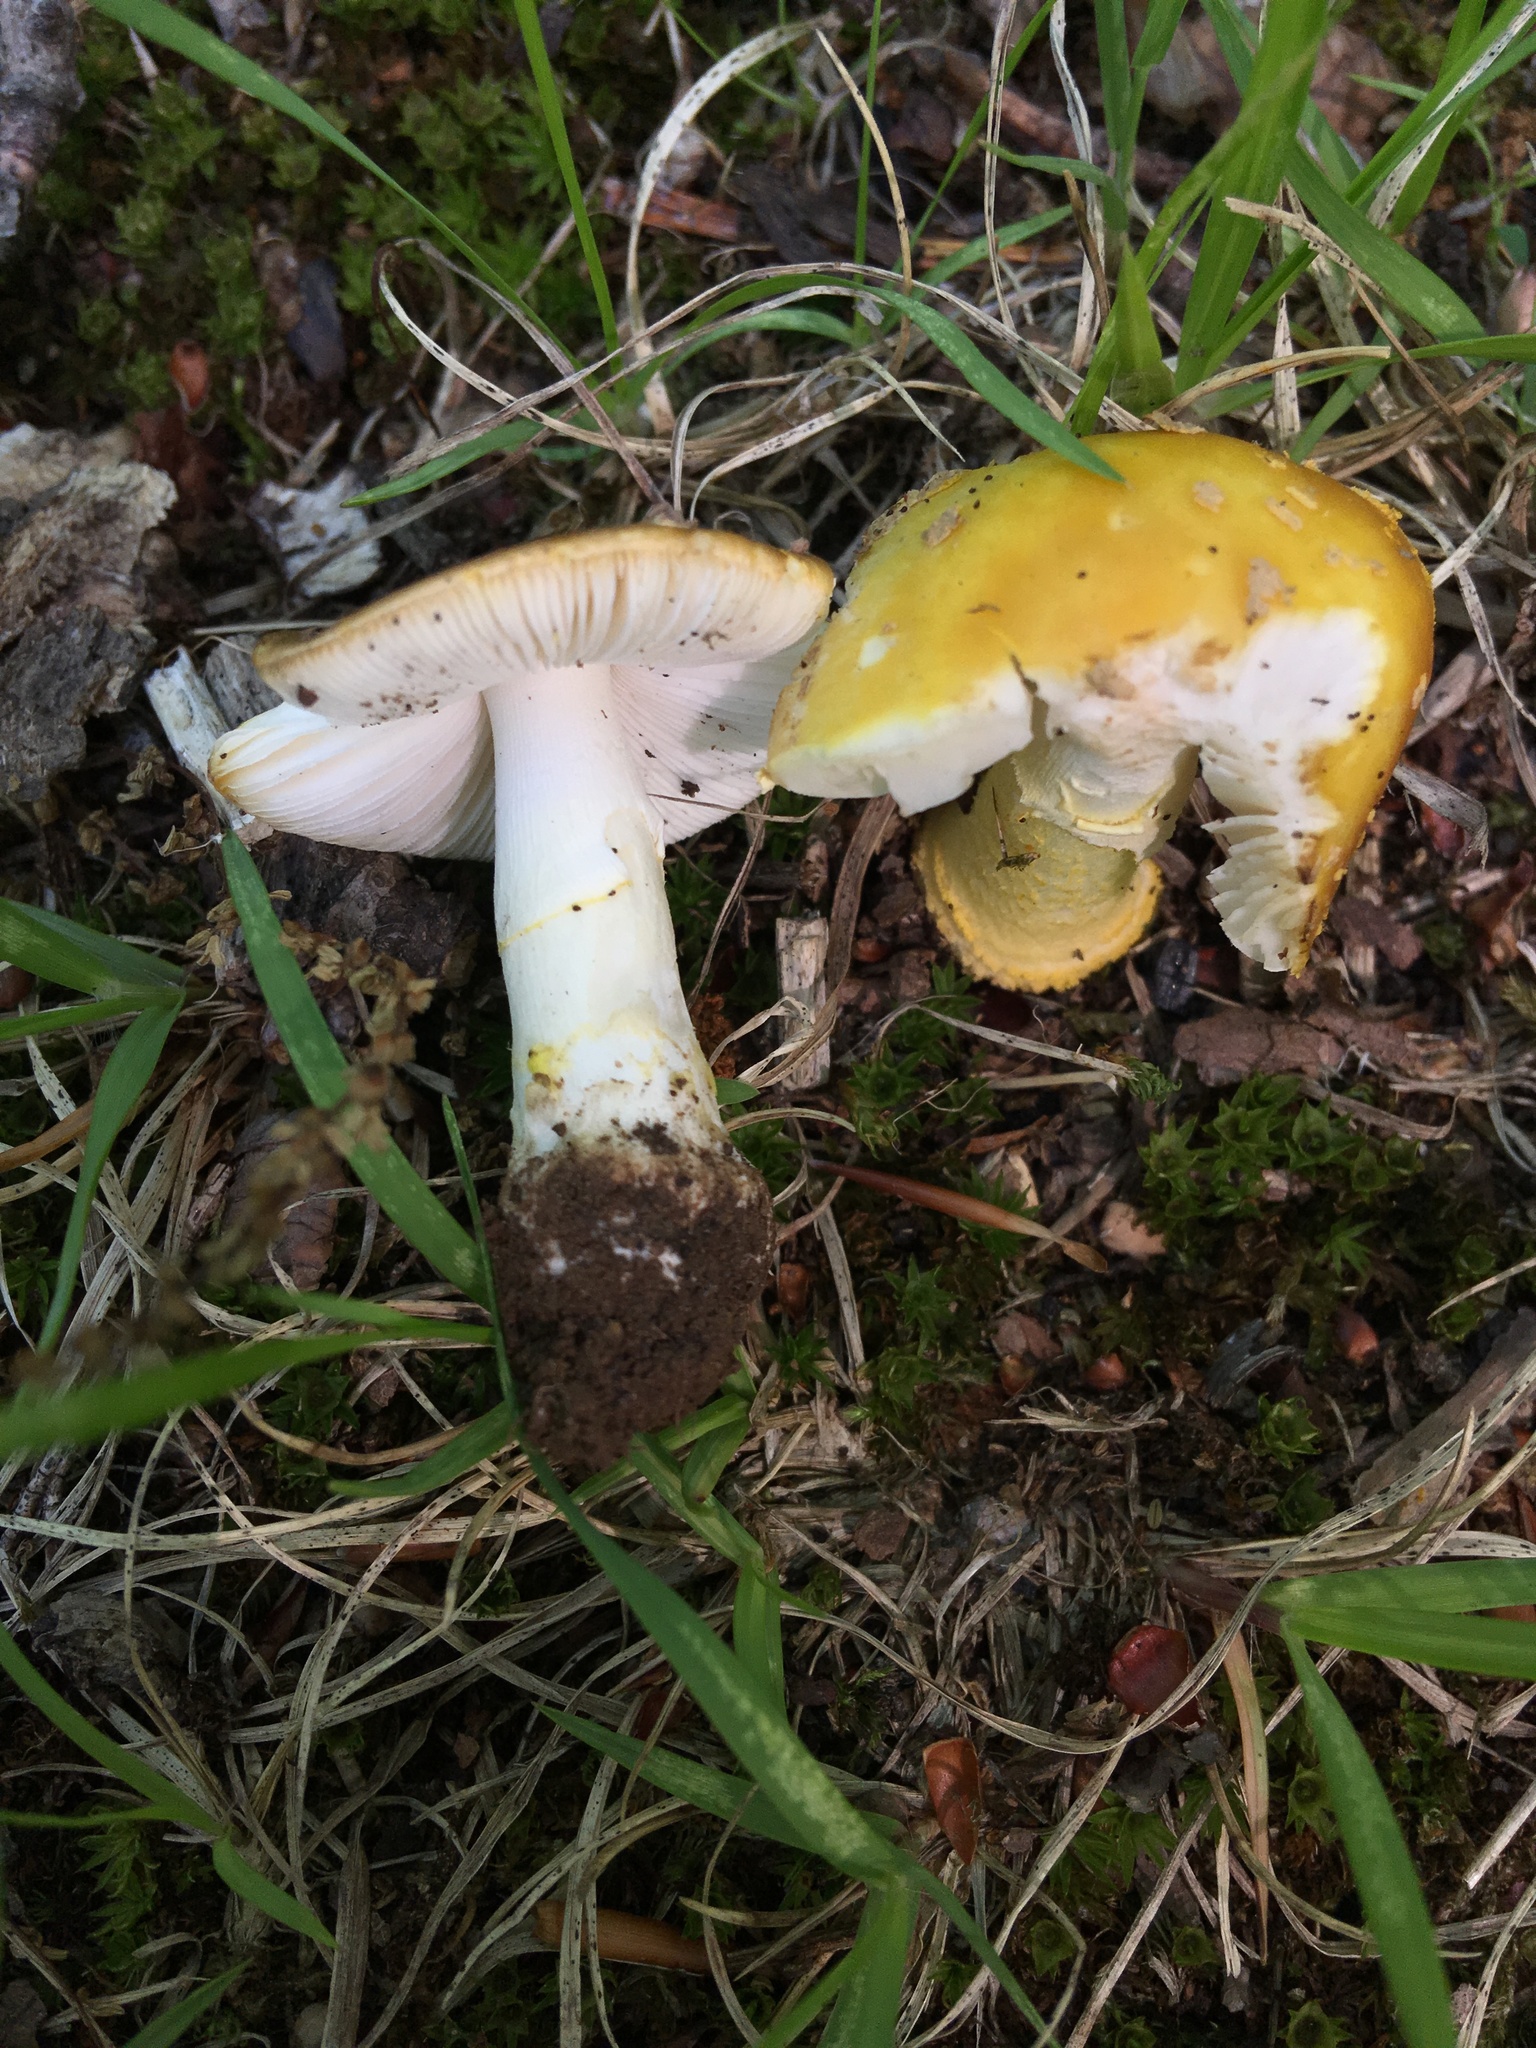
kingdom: Fungi
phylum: Basidiomycota
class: Agaricomycetes
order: Agaricales
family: Amanitaceae
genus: Amanita
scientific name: Amanita flavorubens
